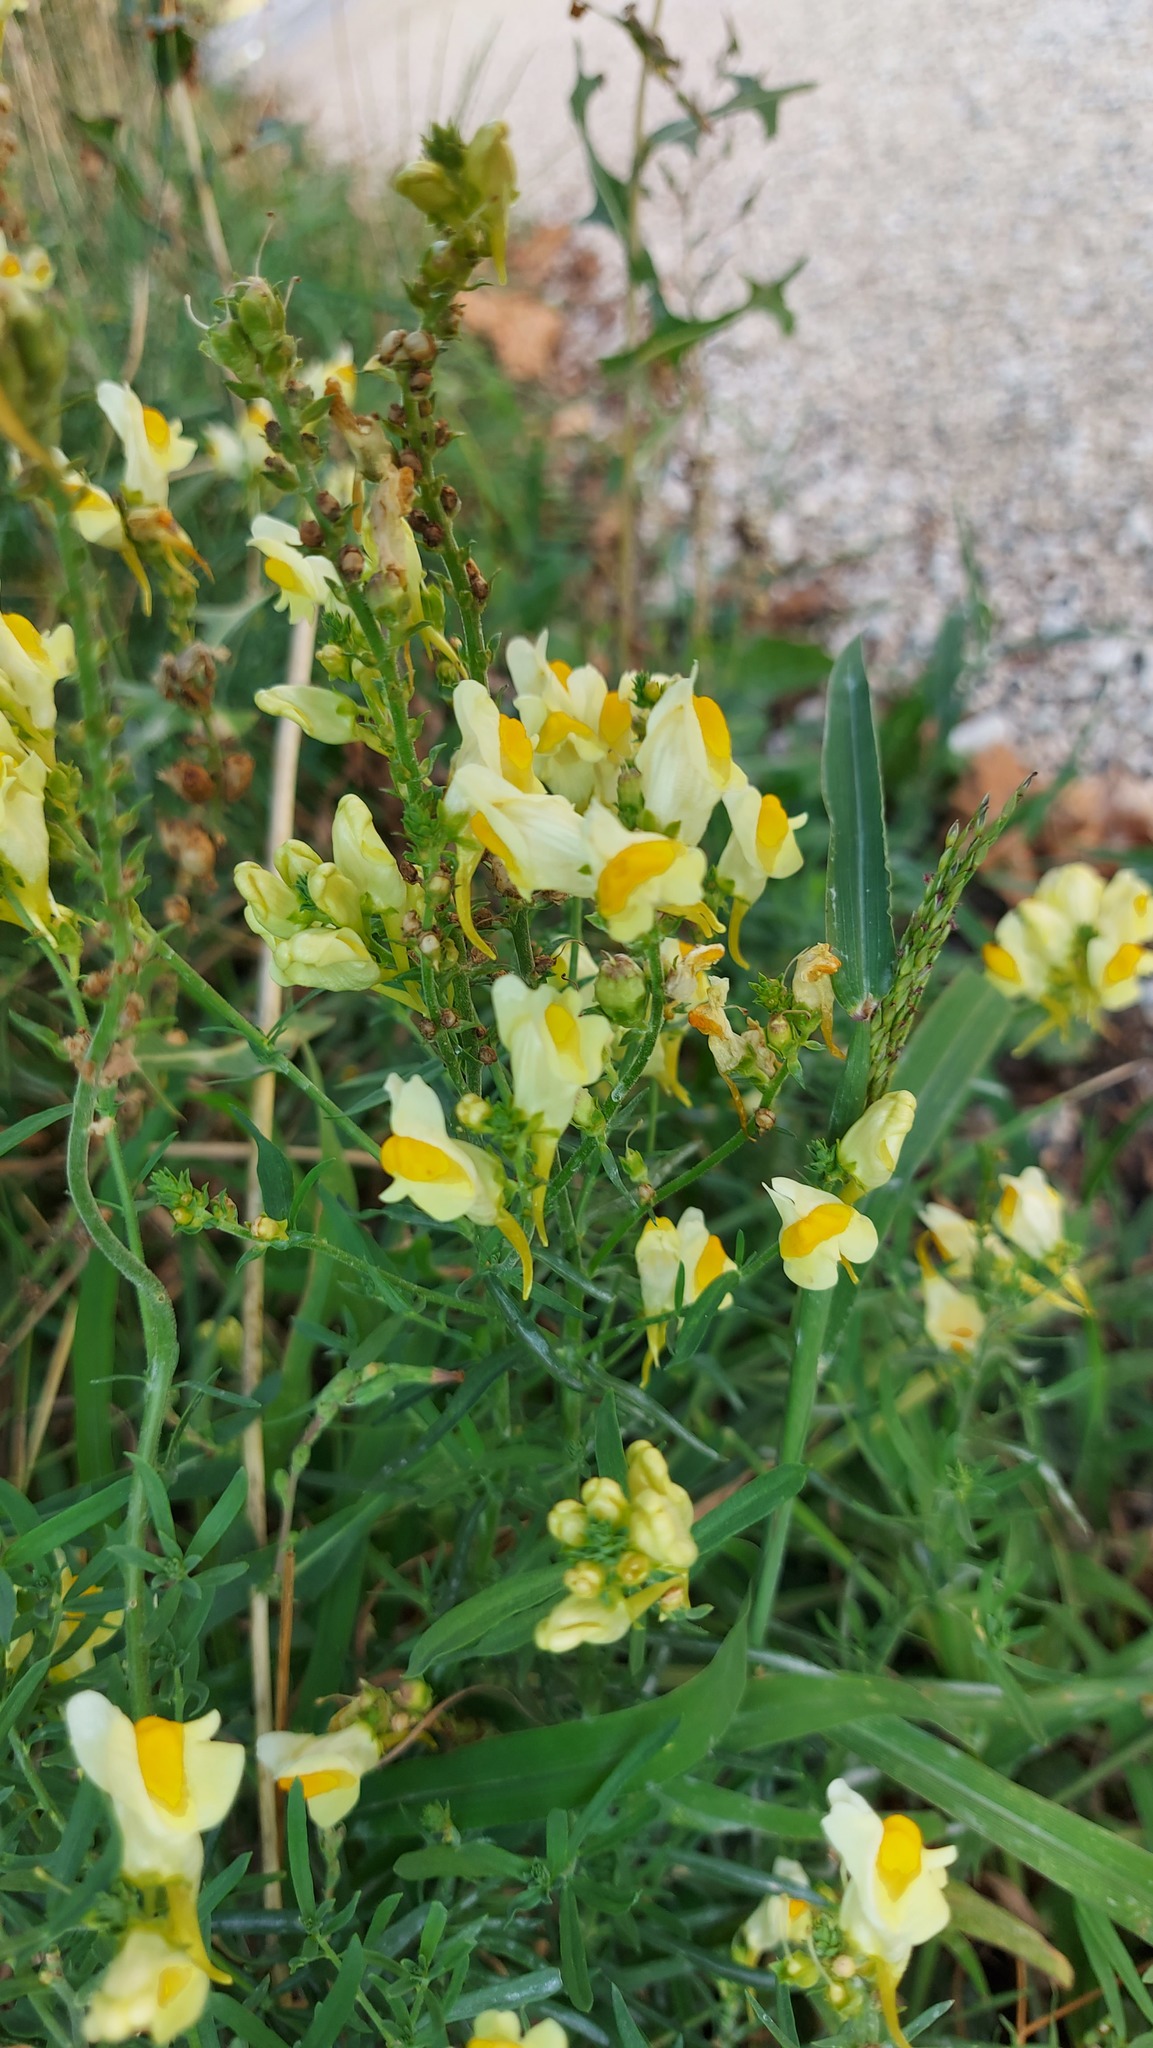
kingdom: Plantae
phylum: Tracheophyta
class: Magnoliopsida
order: Lamiales
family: Plantaginaceae
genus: Linaria
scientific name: Linaria vulgaris
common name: Butter and eggs
